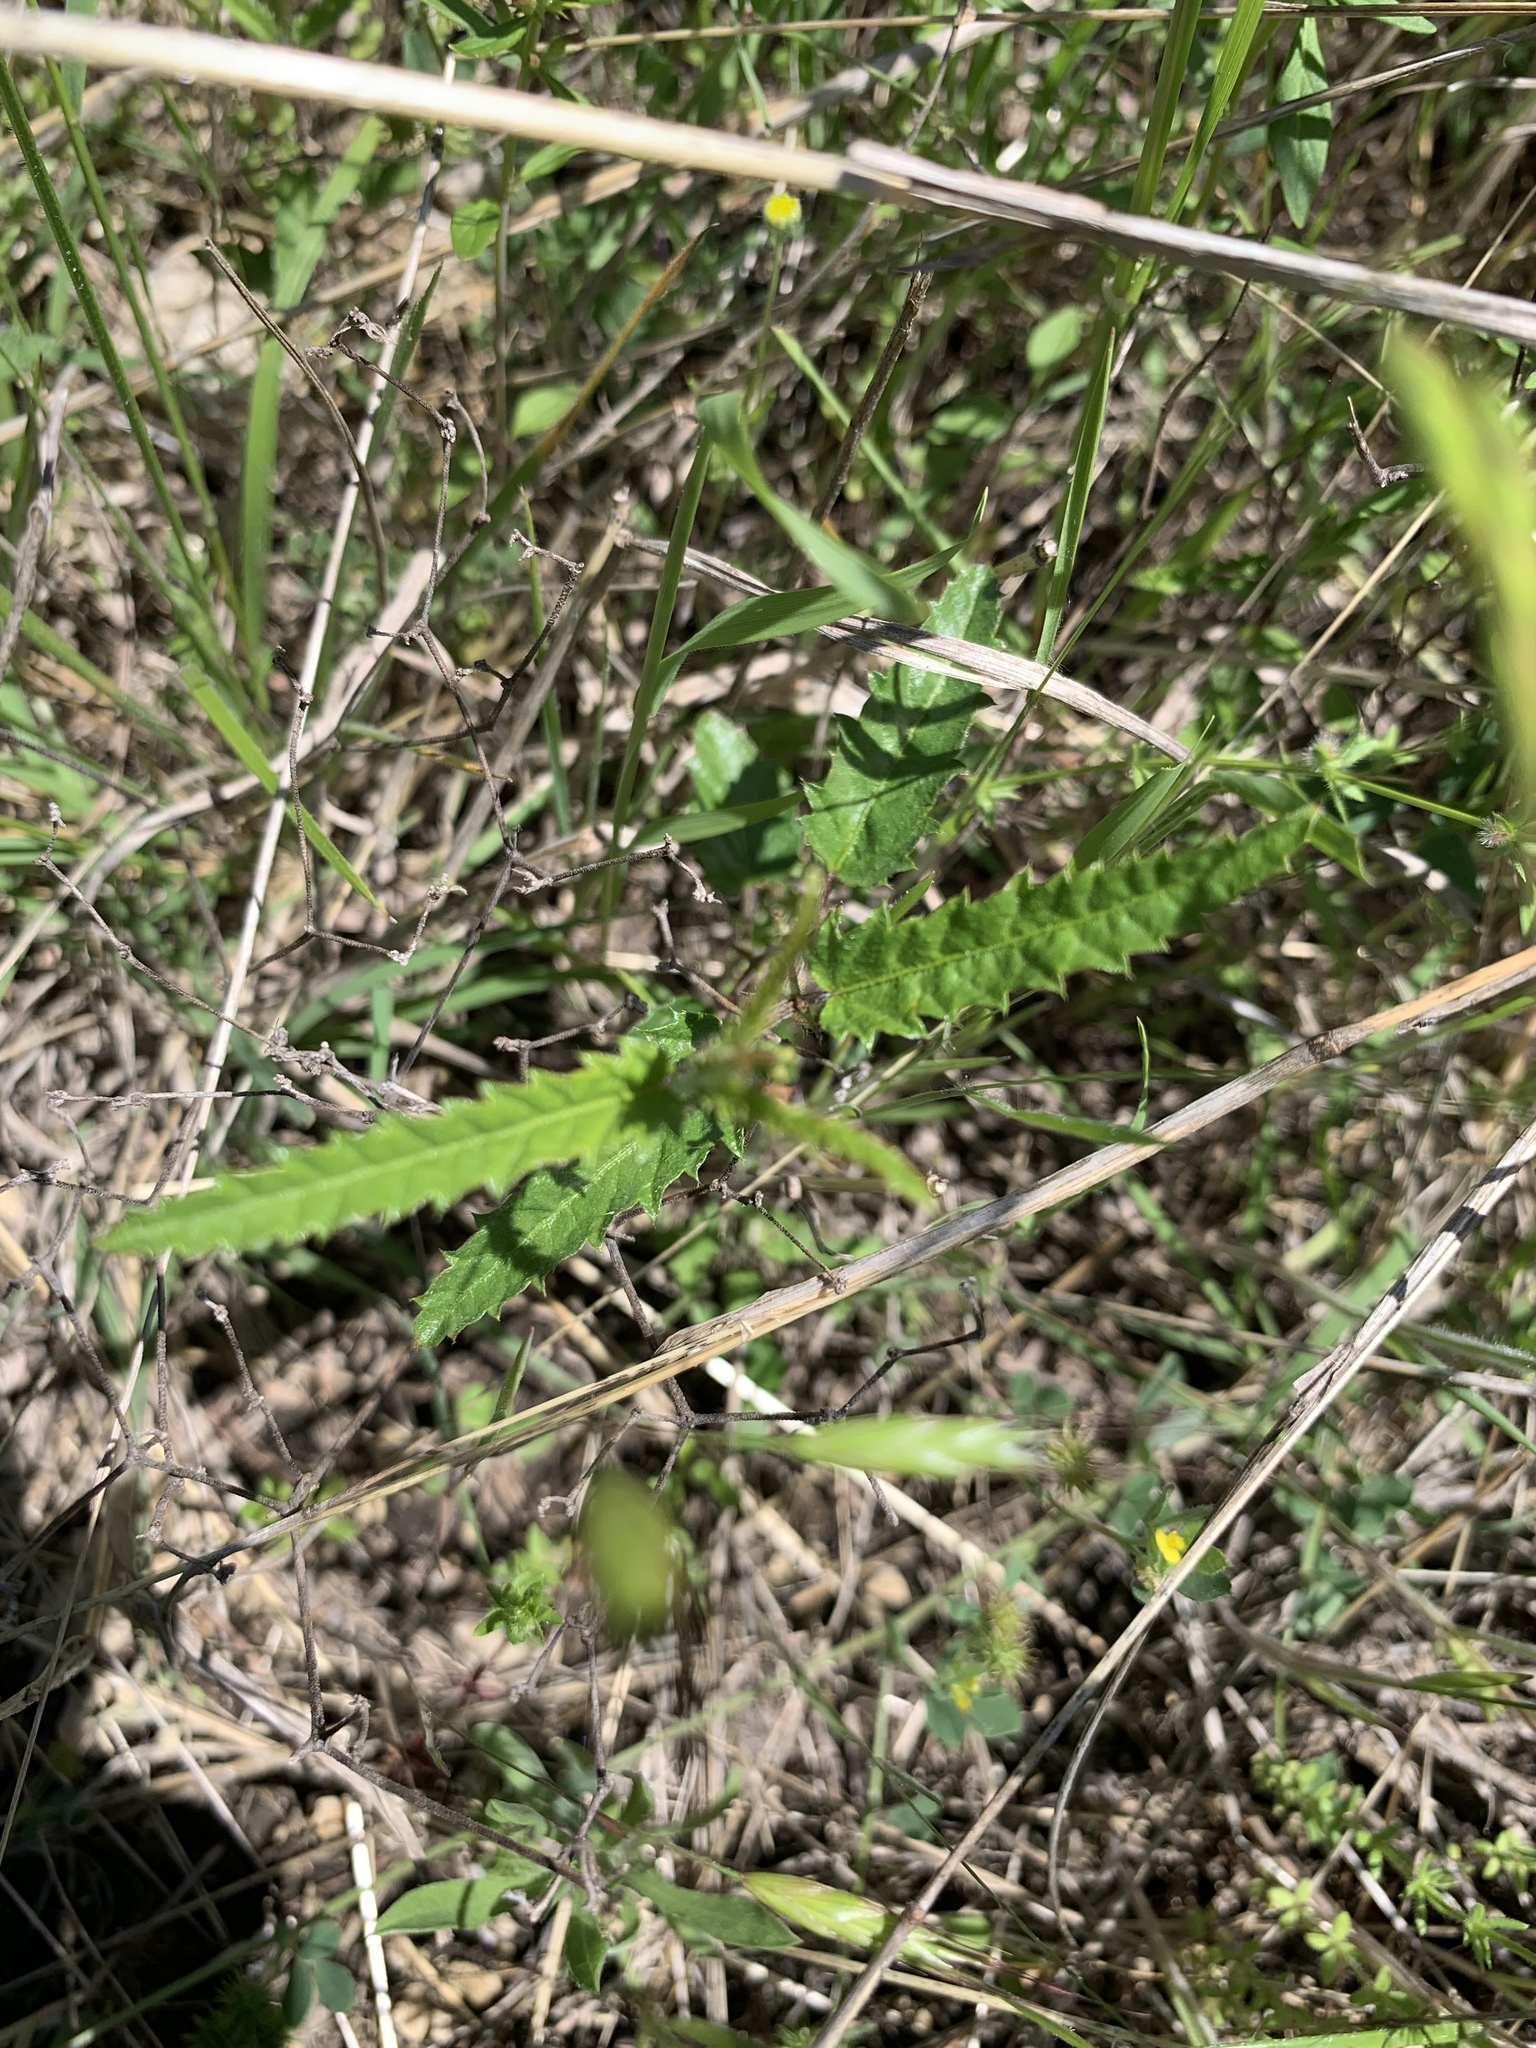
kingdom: Plantae
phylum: Tracheophyta
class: Magnoliopsida
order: Malpighiales
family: Euphorbiaceae
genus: Tragia
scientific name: Tragia ramosa
